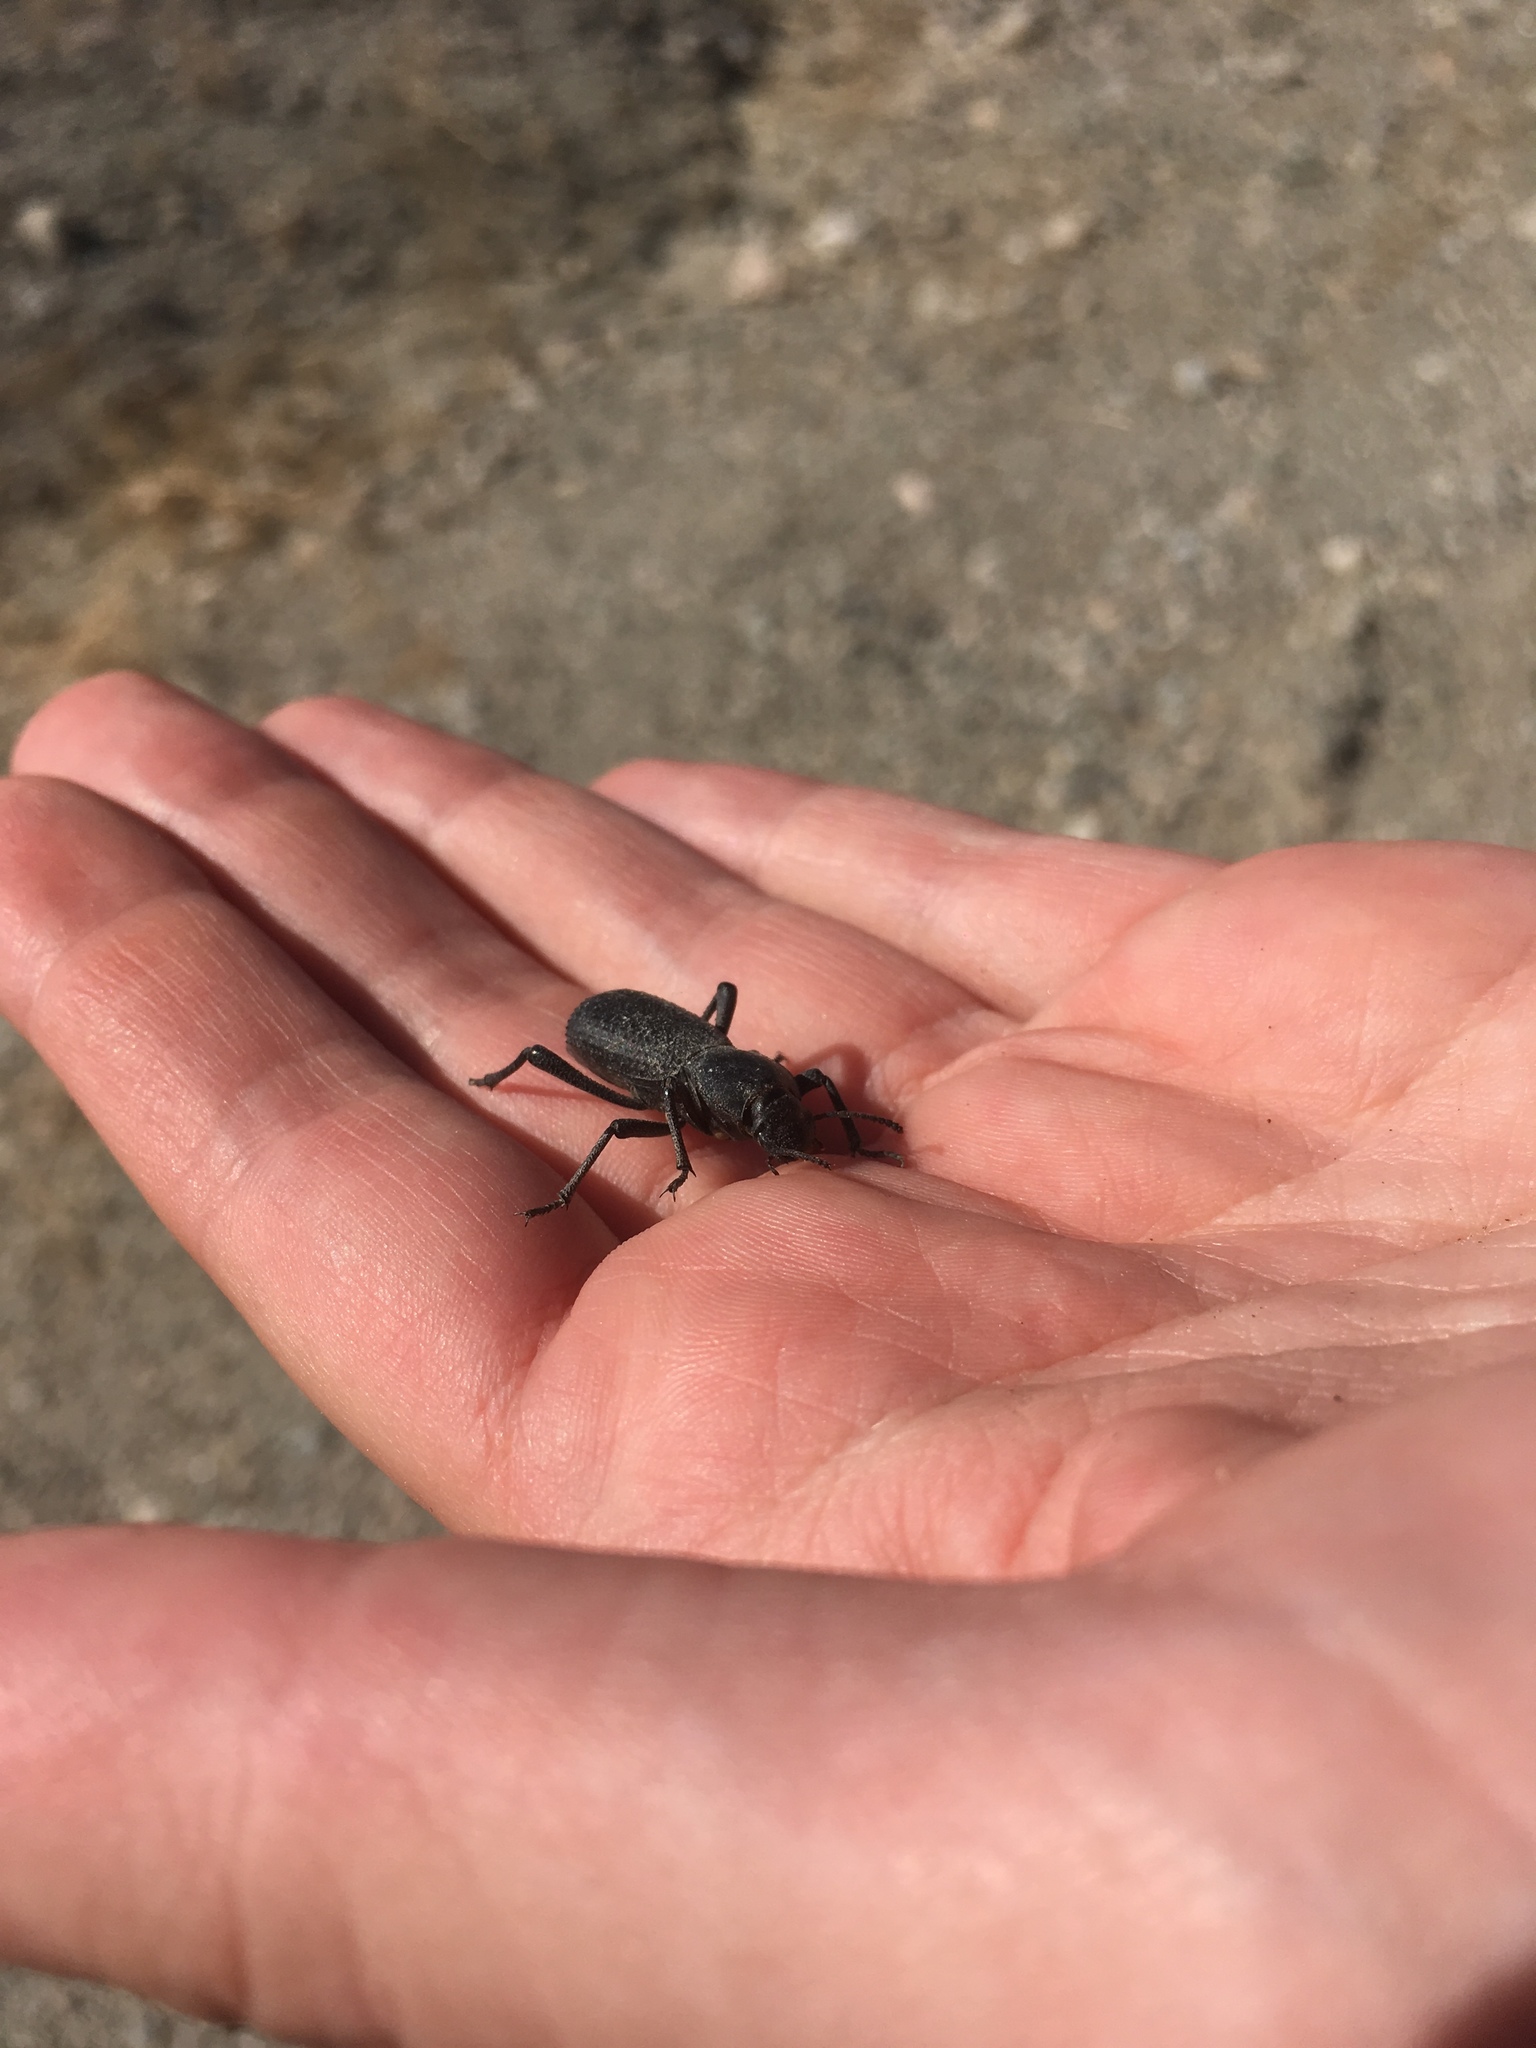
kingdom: Animalia
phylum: Arthropoda
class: Insecta
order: Coleoptera
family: Tenebrionidae
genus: Cryptoglossa
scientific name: Cryptoglossa muricata
